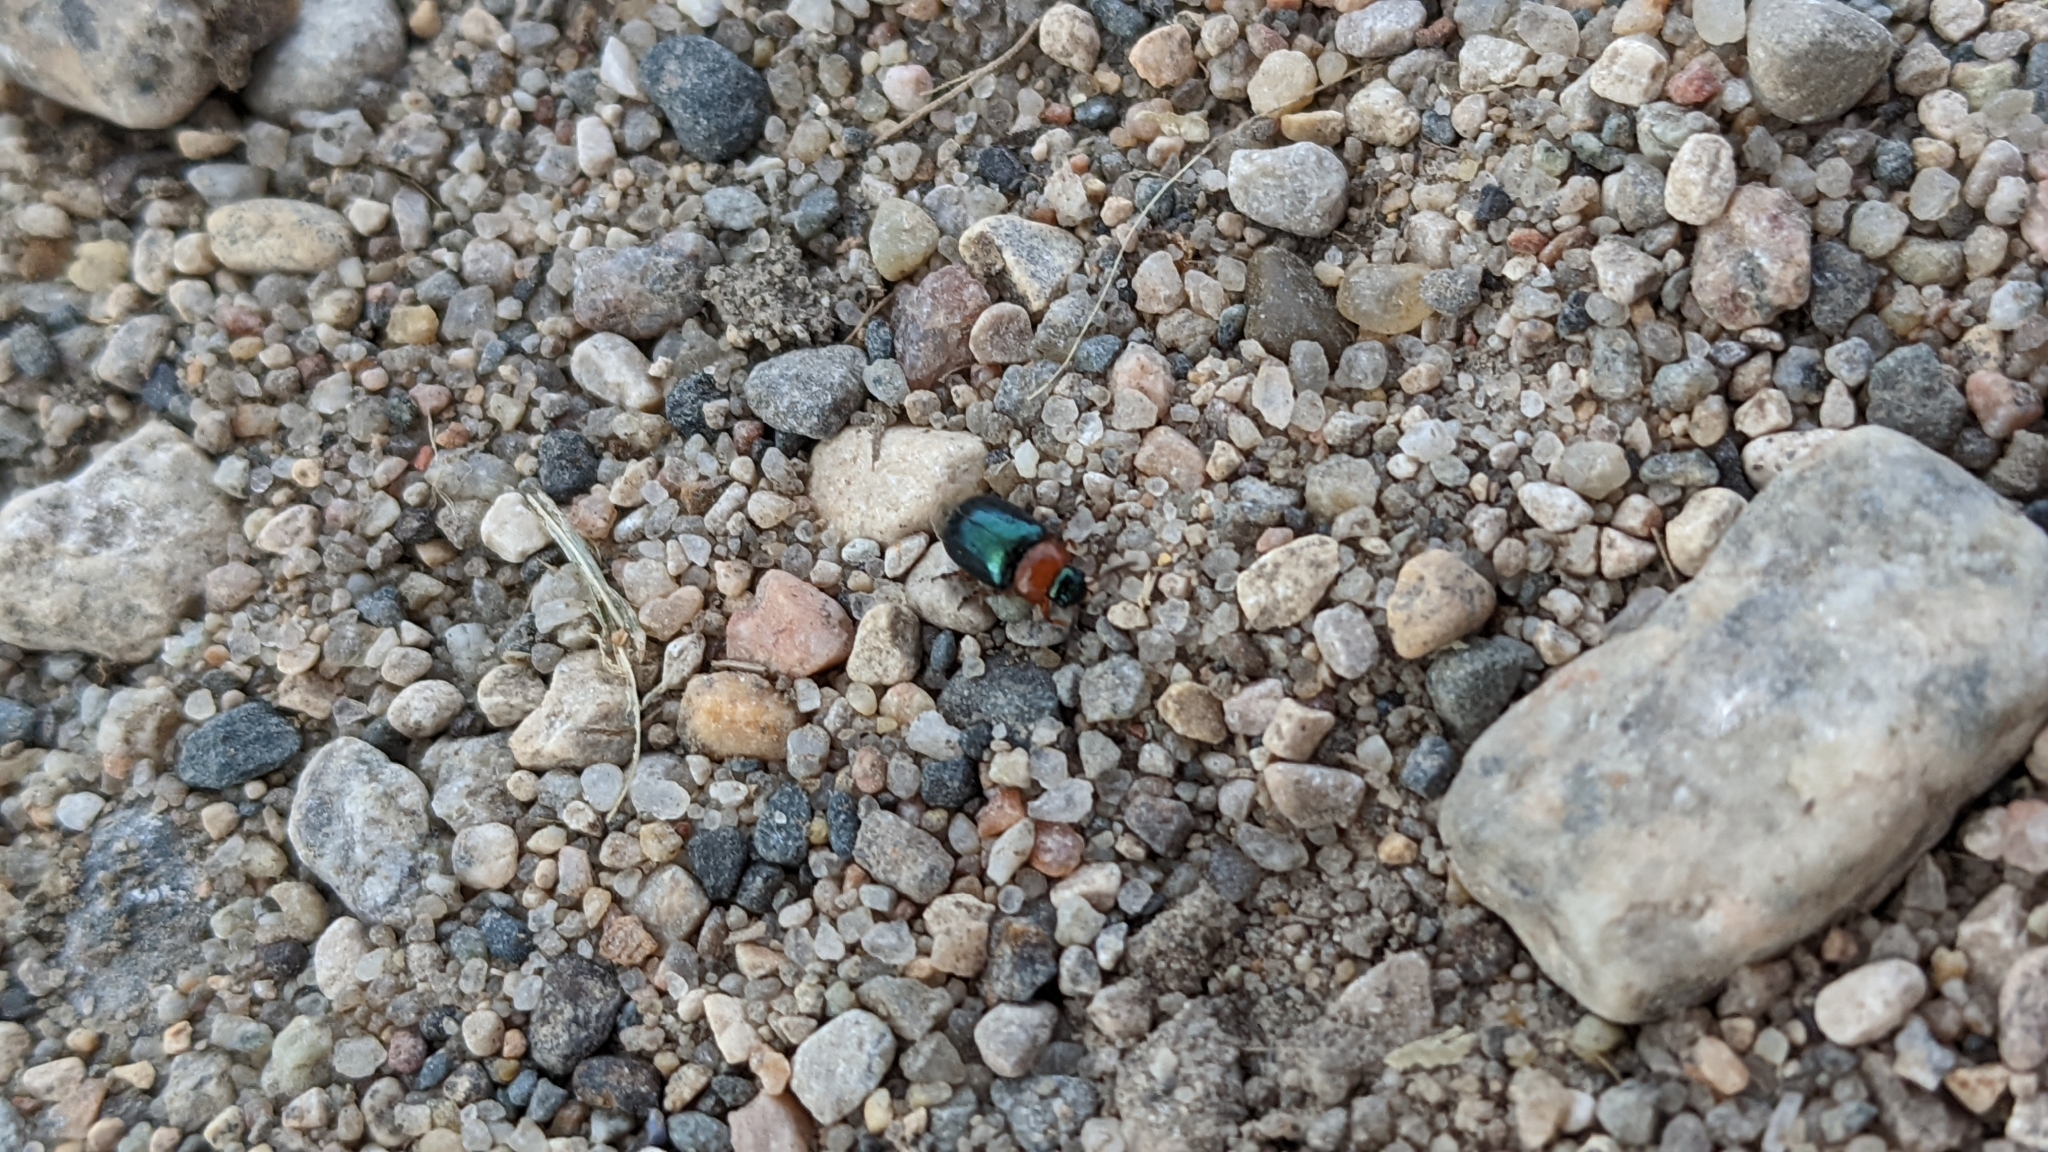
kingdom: Animalia
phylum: Arthropoda
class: Insecta
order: Coleoptera
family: Chrysomelidae
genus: Gastrophysa
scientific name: Gastrophysa polygoni
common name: Knotweed leaf beetle
